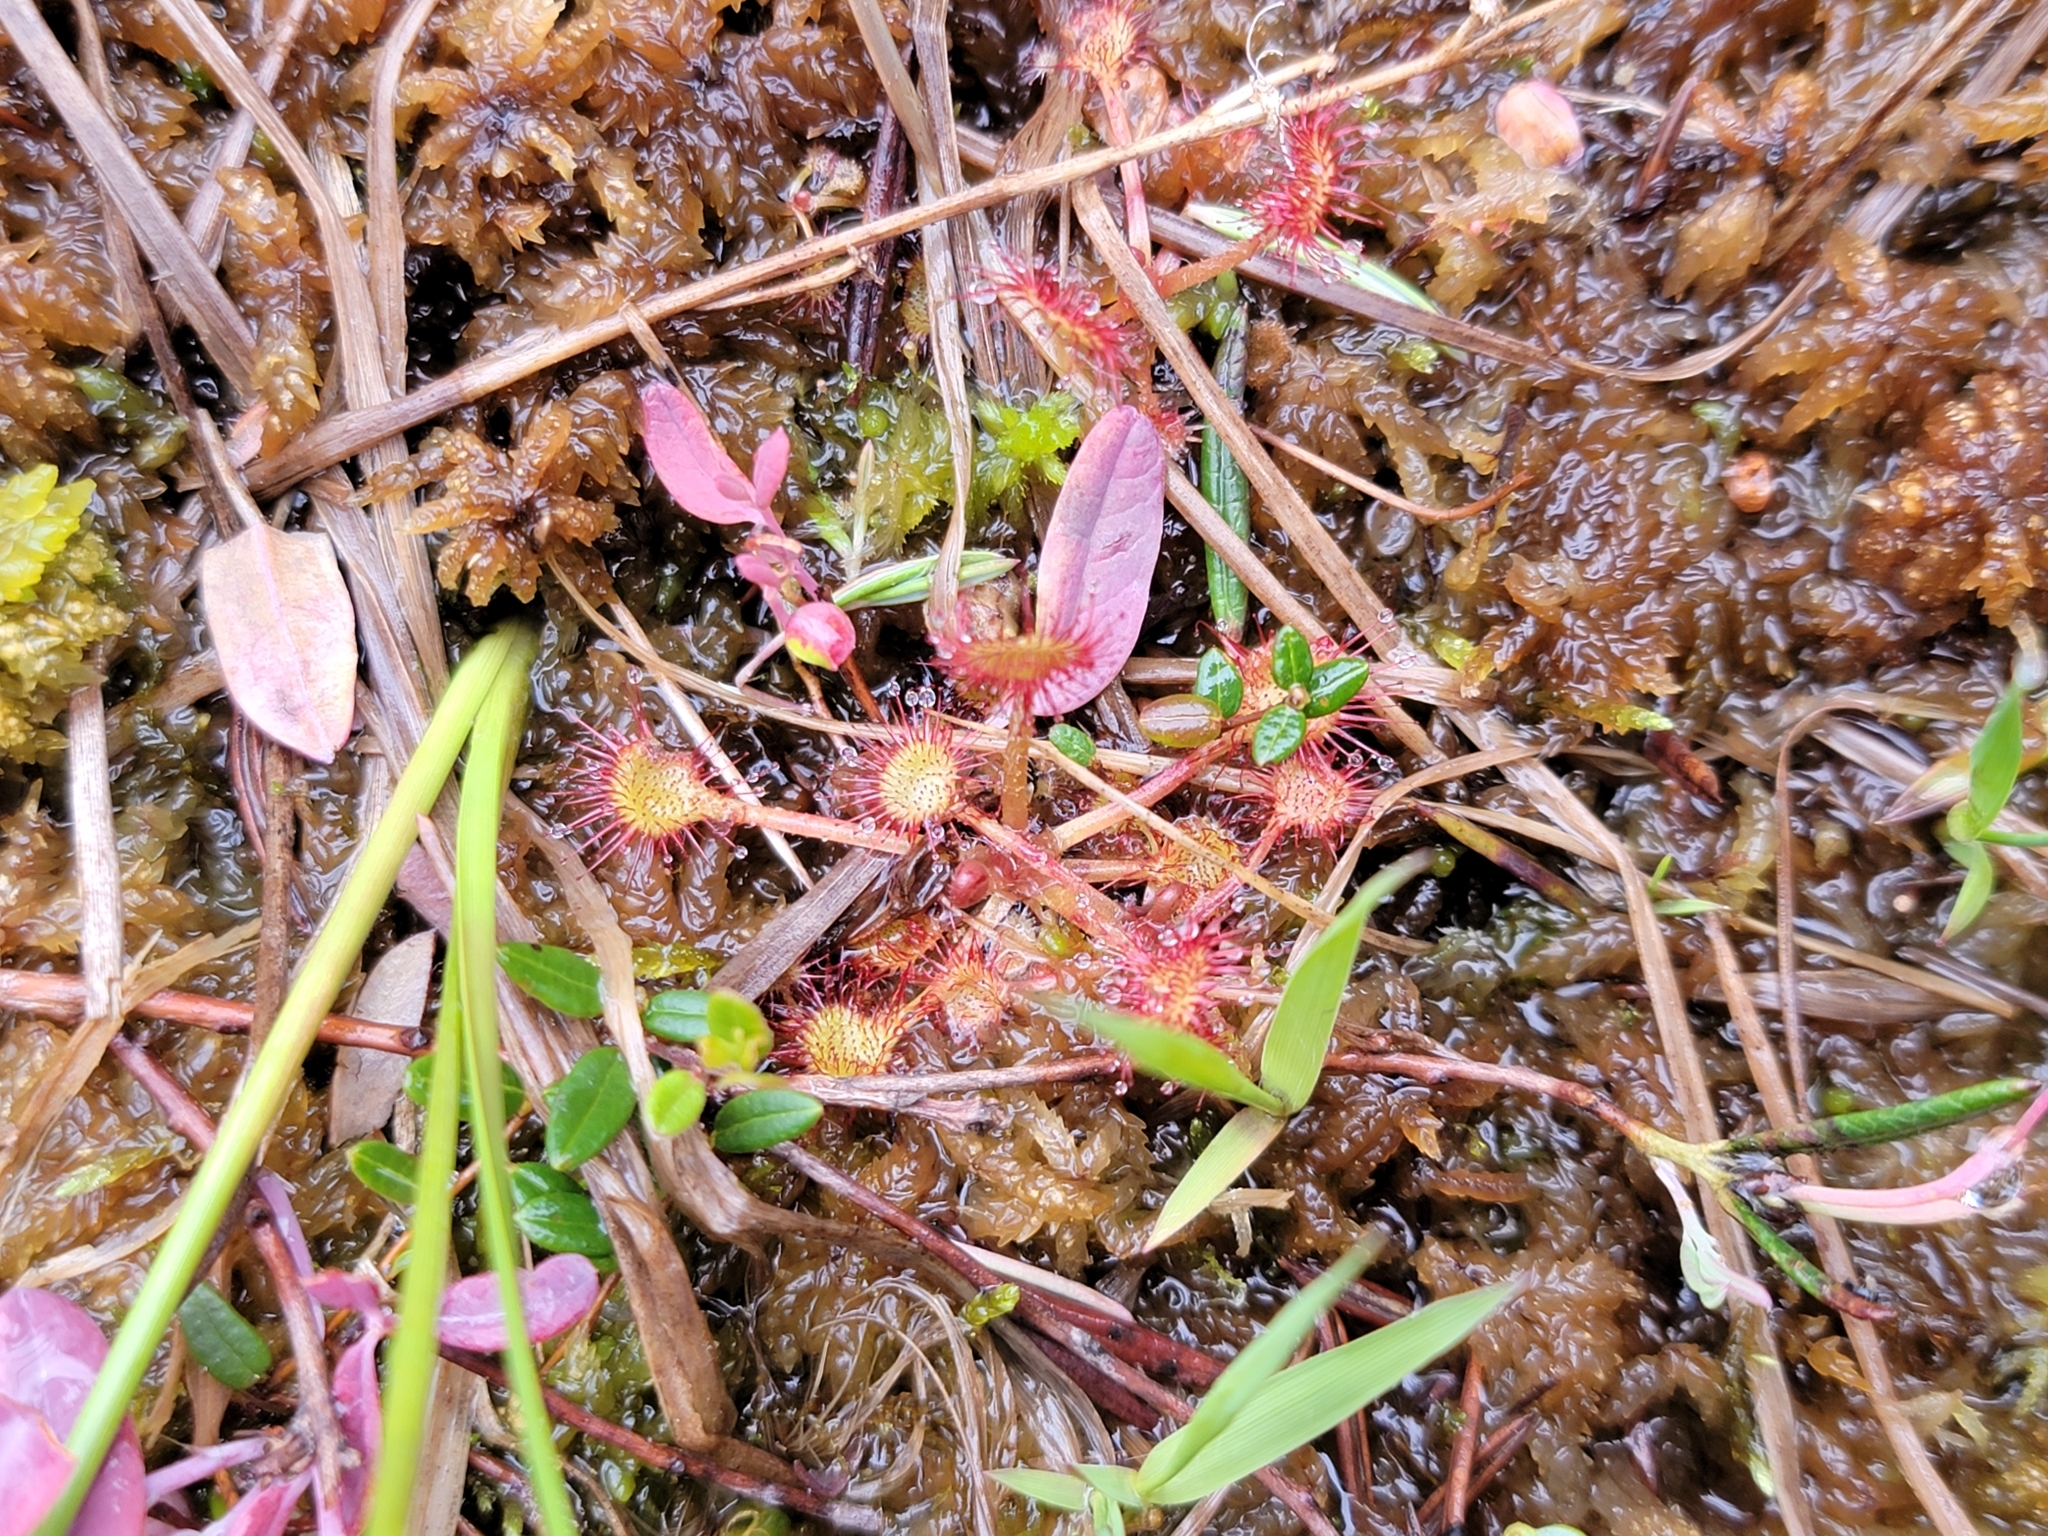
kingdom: Plantae
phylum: Tracheophyta
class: Magnoliopsida
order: Caryophyllales
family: Droseraceae
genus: Drosera
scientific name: Drosera rotundifolia
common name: Round-leaved sundew
